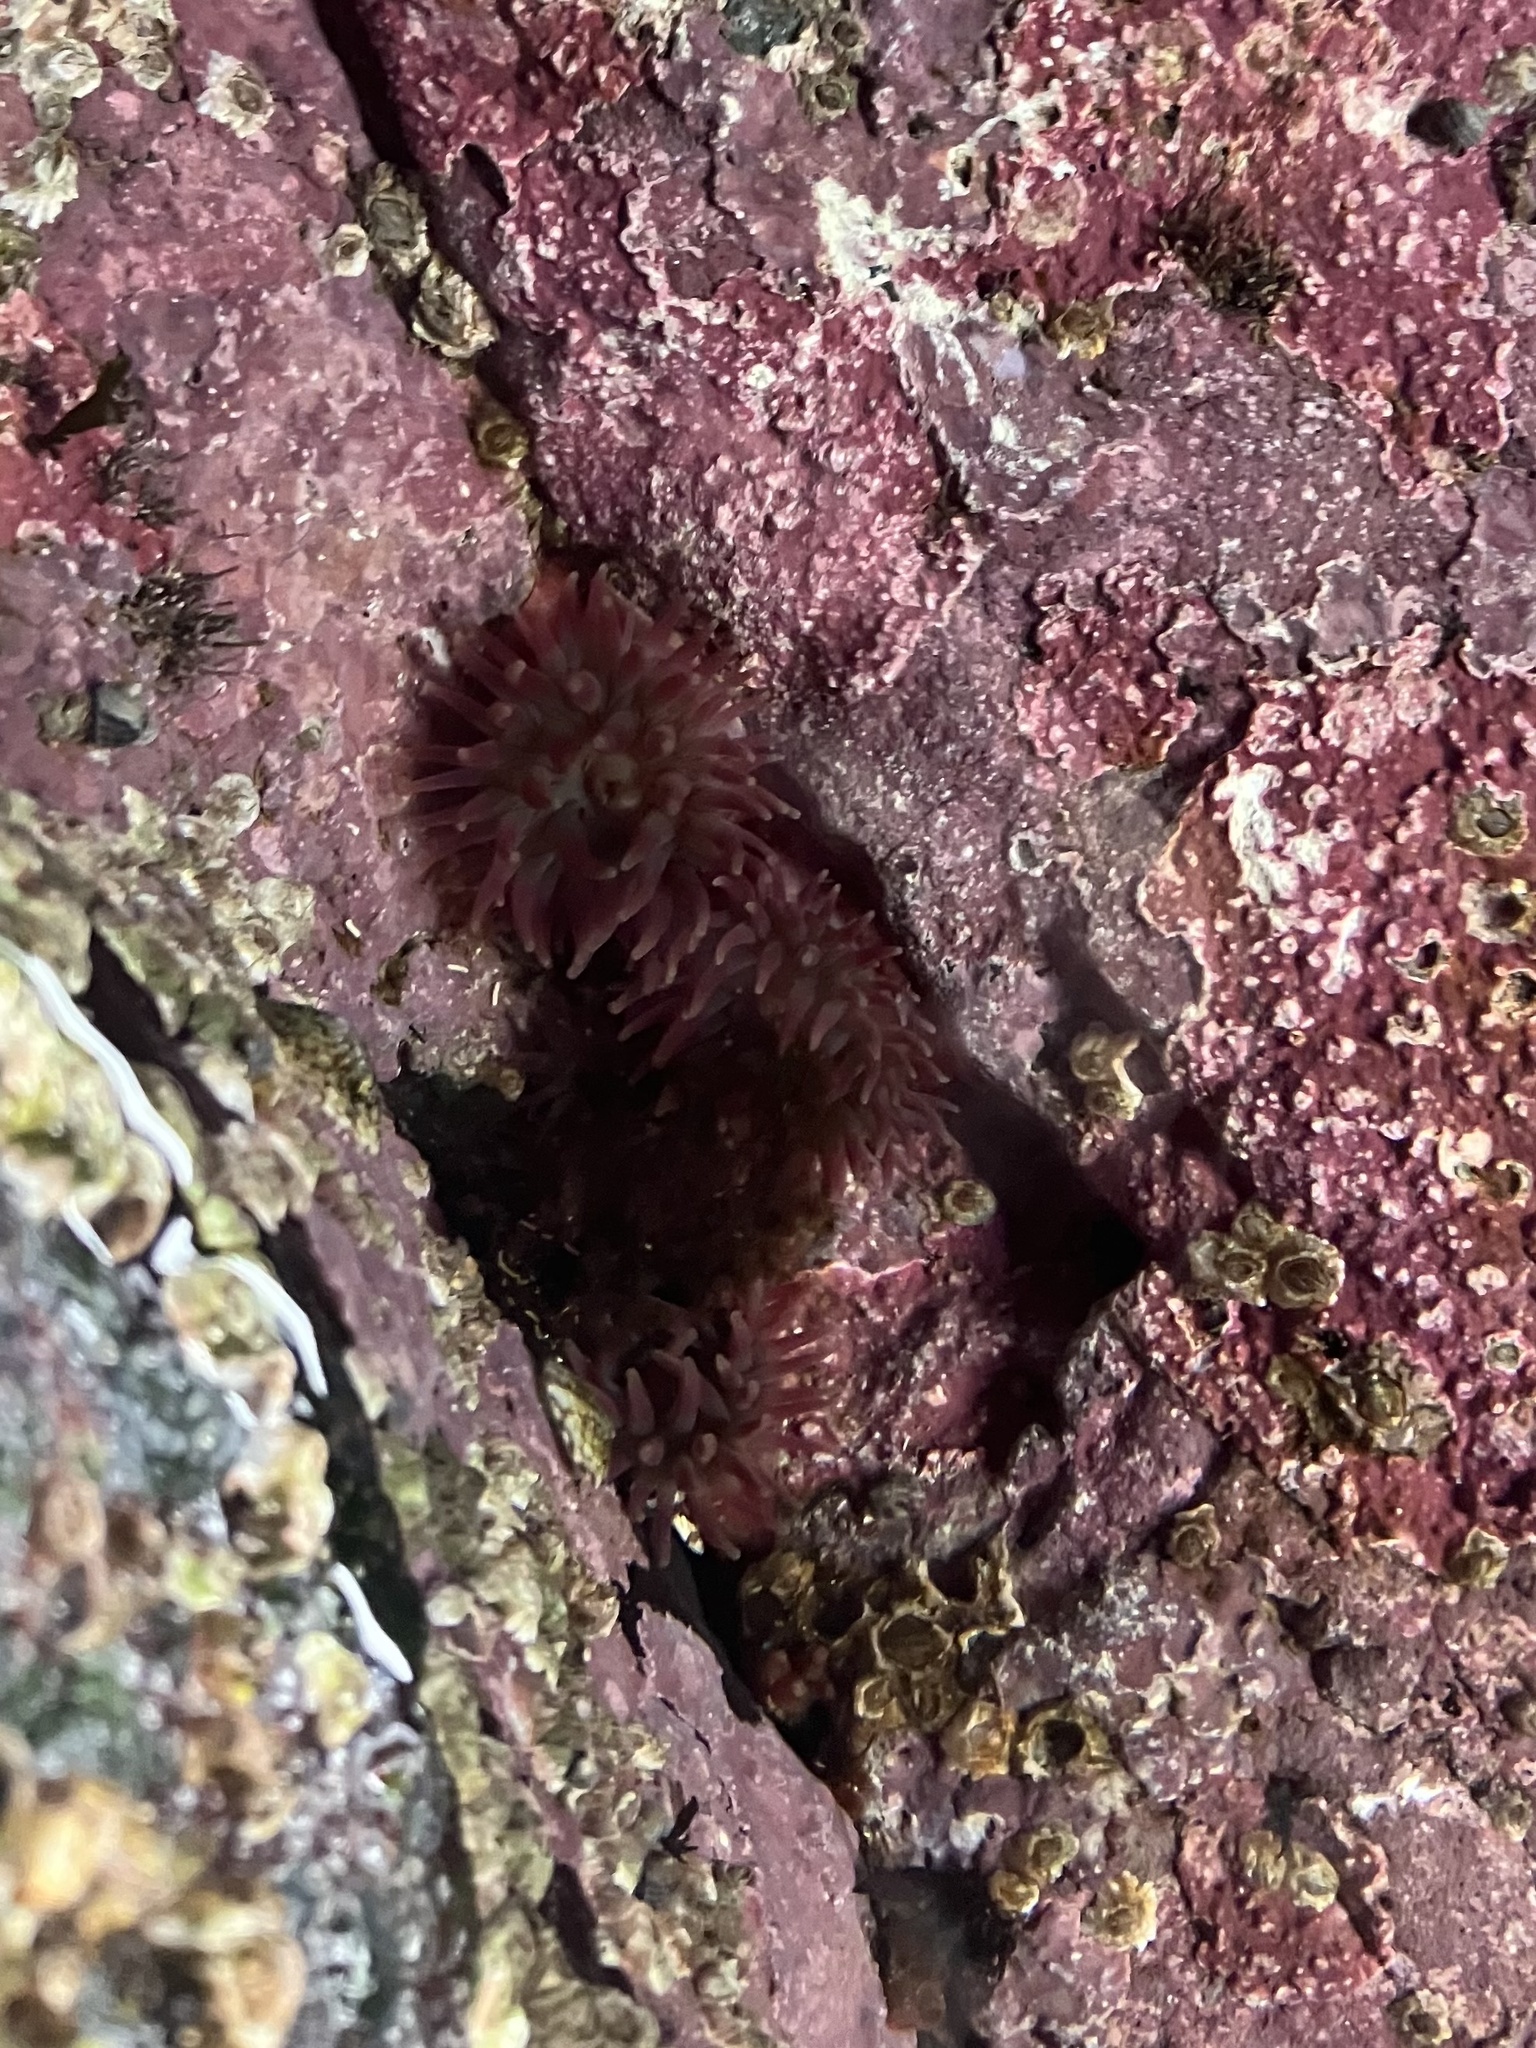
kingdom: Animalia
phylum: Cnidaria
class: Anthozoa
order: Actiniaria
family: Actiniidae
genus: Urticina
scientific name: Urticina crassicornis
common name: Mottled anemone
